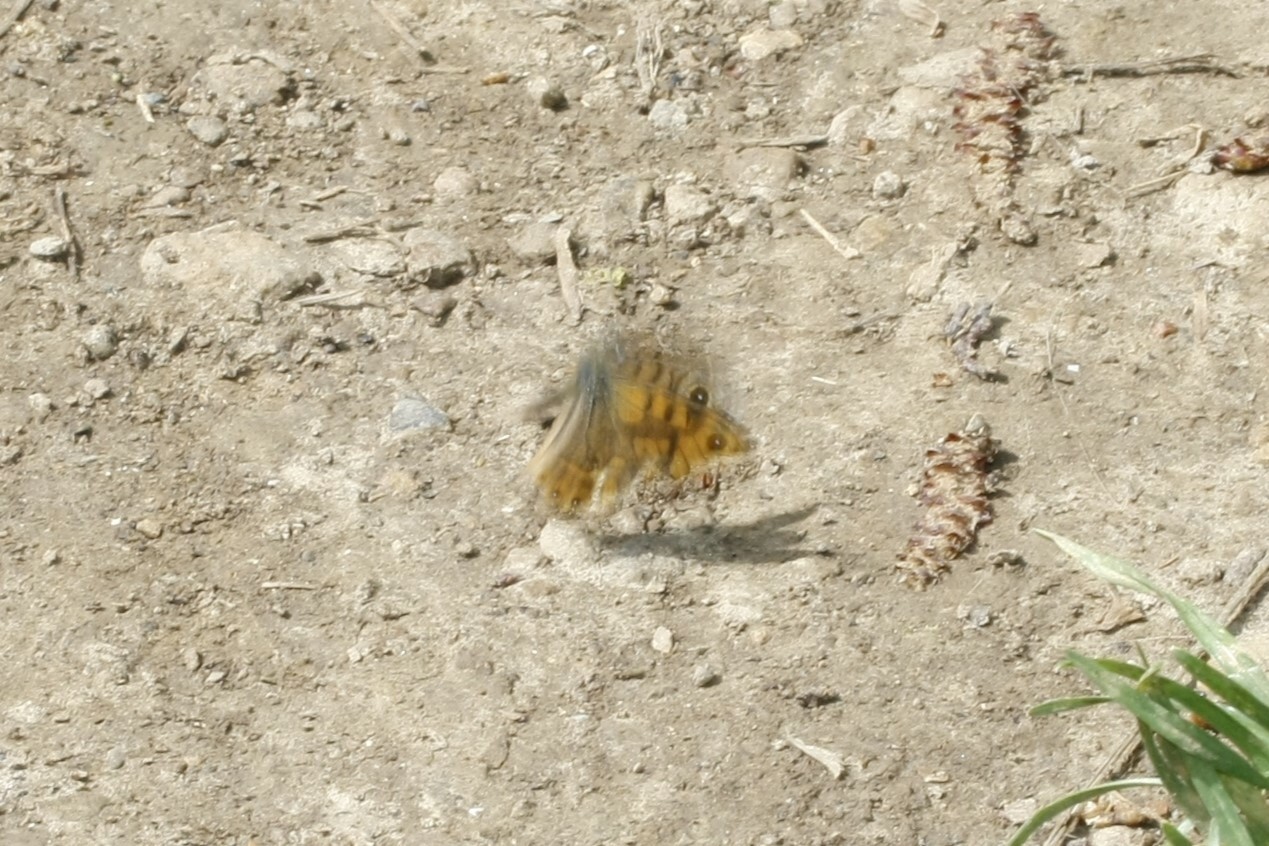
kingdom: Animalia
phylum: Arthropoda
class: Insecta
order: Lepidoptera
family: Nymphalidae
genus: Pararge
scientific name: Pararge Lasiommata megera
